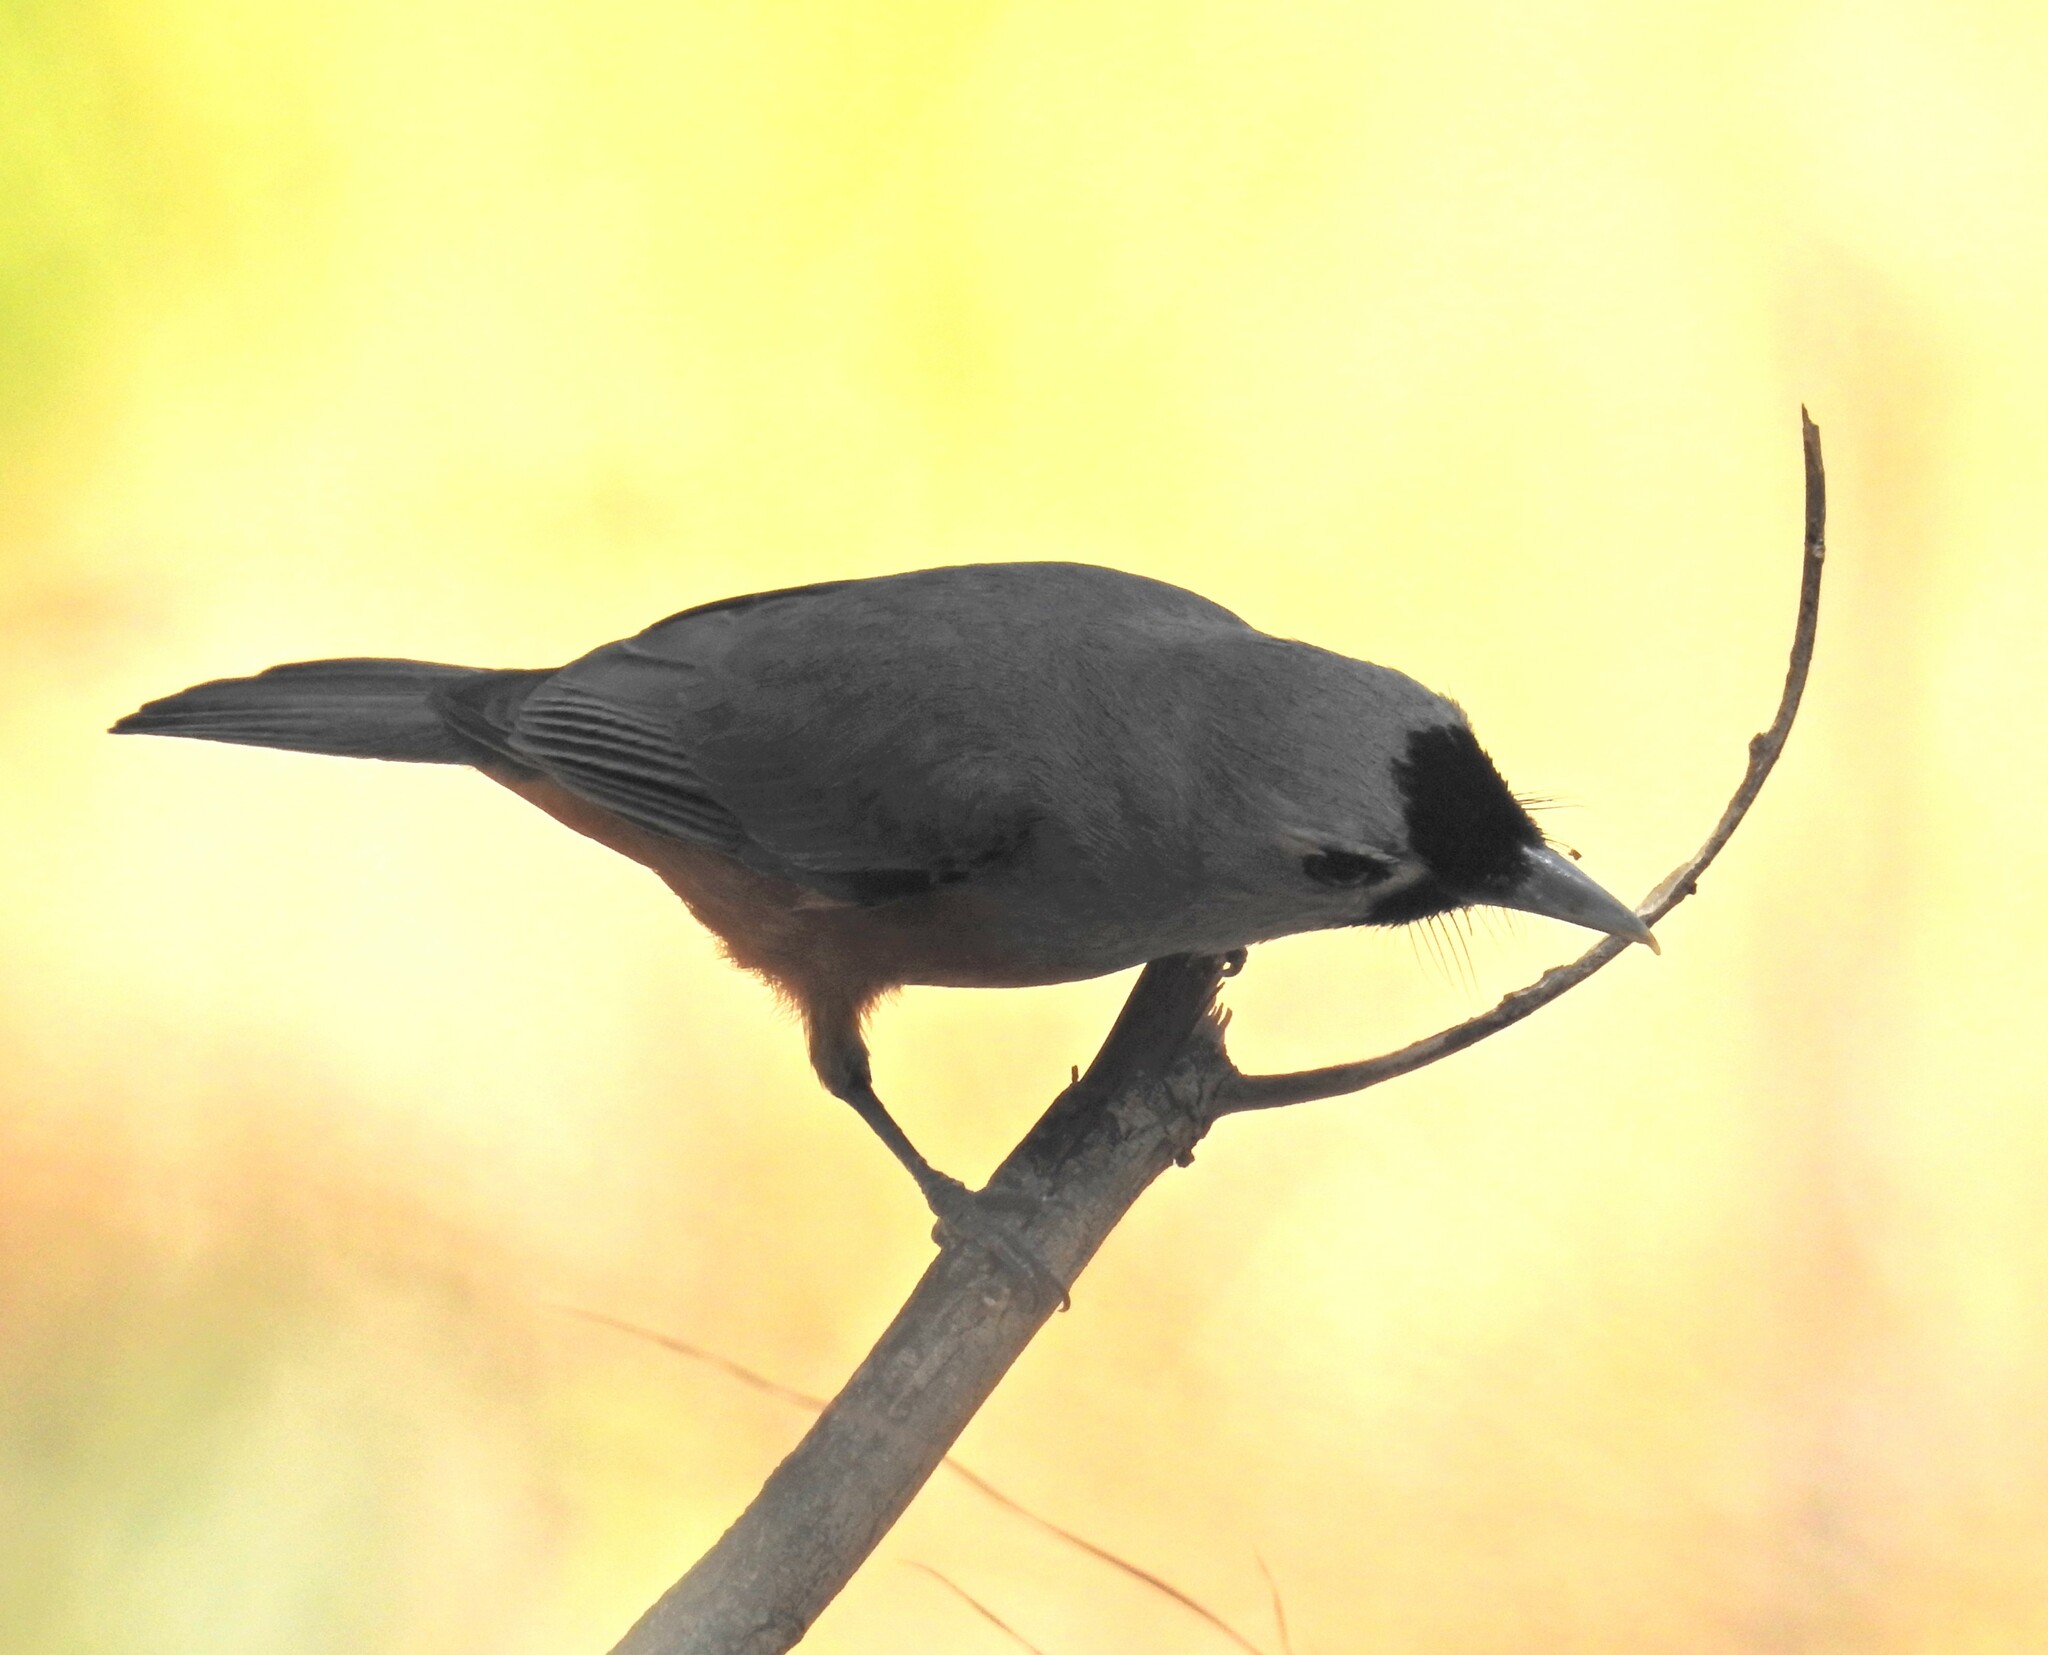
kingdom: Animalia
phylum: Chordata
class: Aves
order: Passeriformes
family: Monarchidae
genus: Monarcha
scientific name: Monarcha melanopsis
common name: Black-faced monarch
